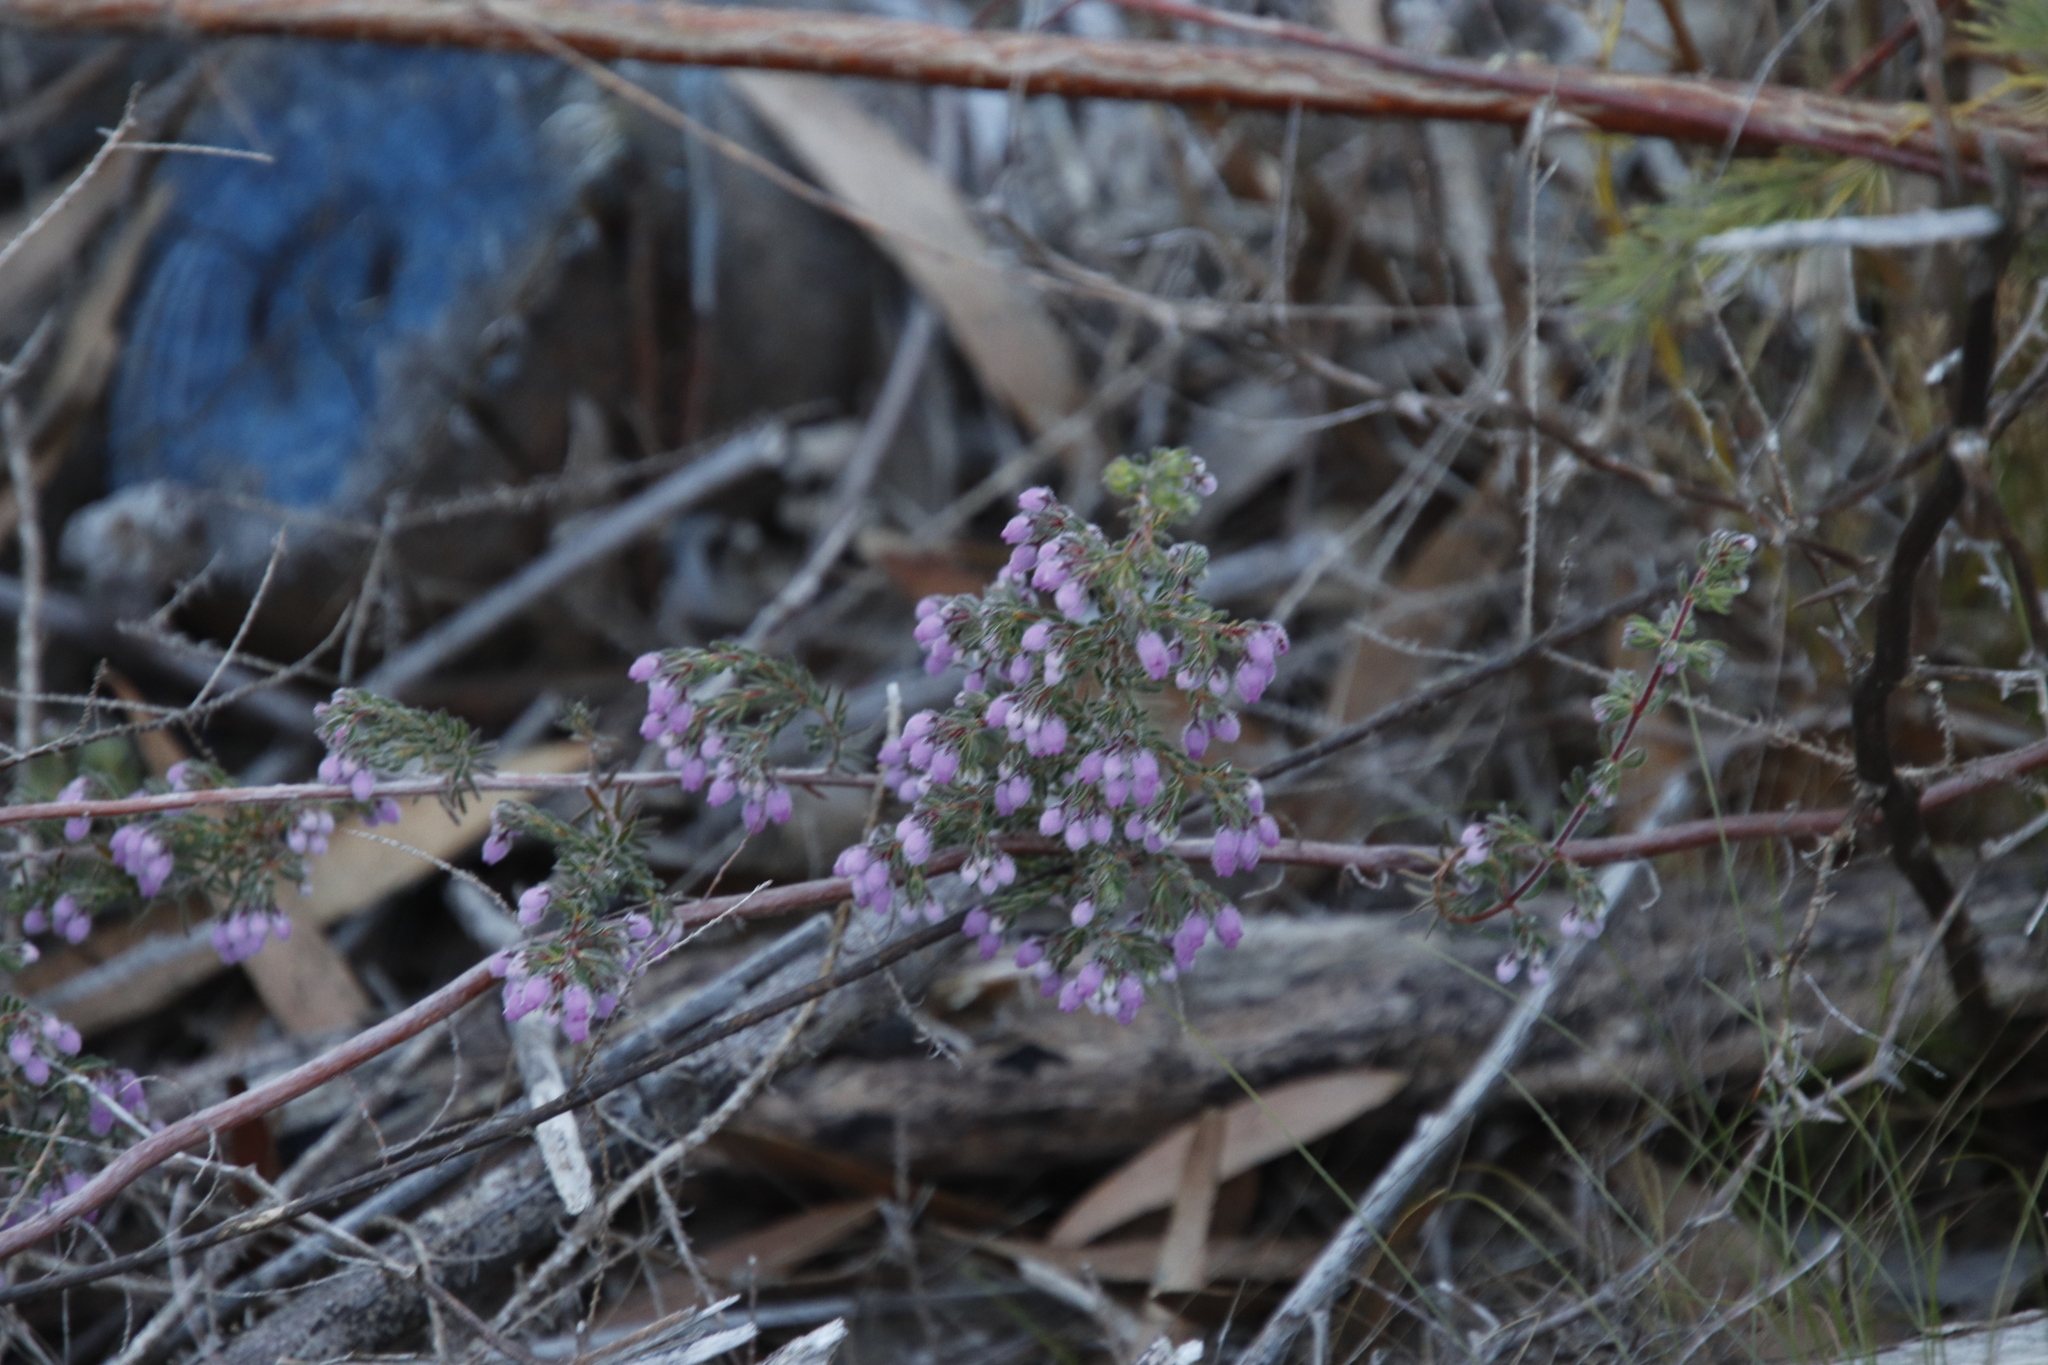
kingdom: Plantae
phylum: Tracheophyta
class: Magnoliopsida
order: Ericales
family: Ericaceae
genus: Erica
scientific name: Erica hirtiflora
